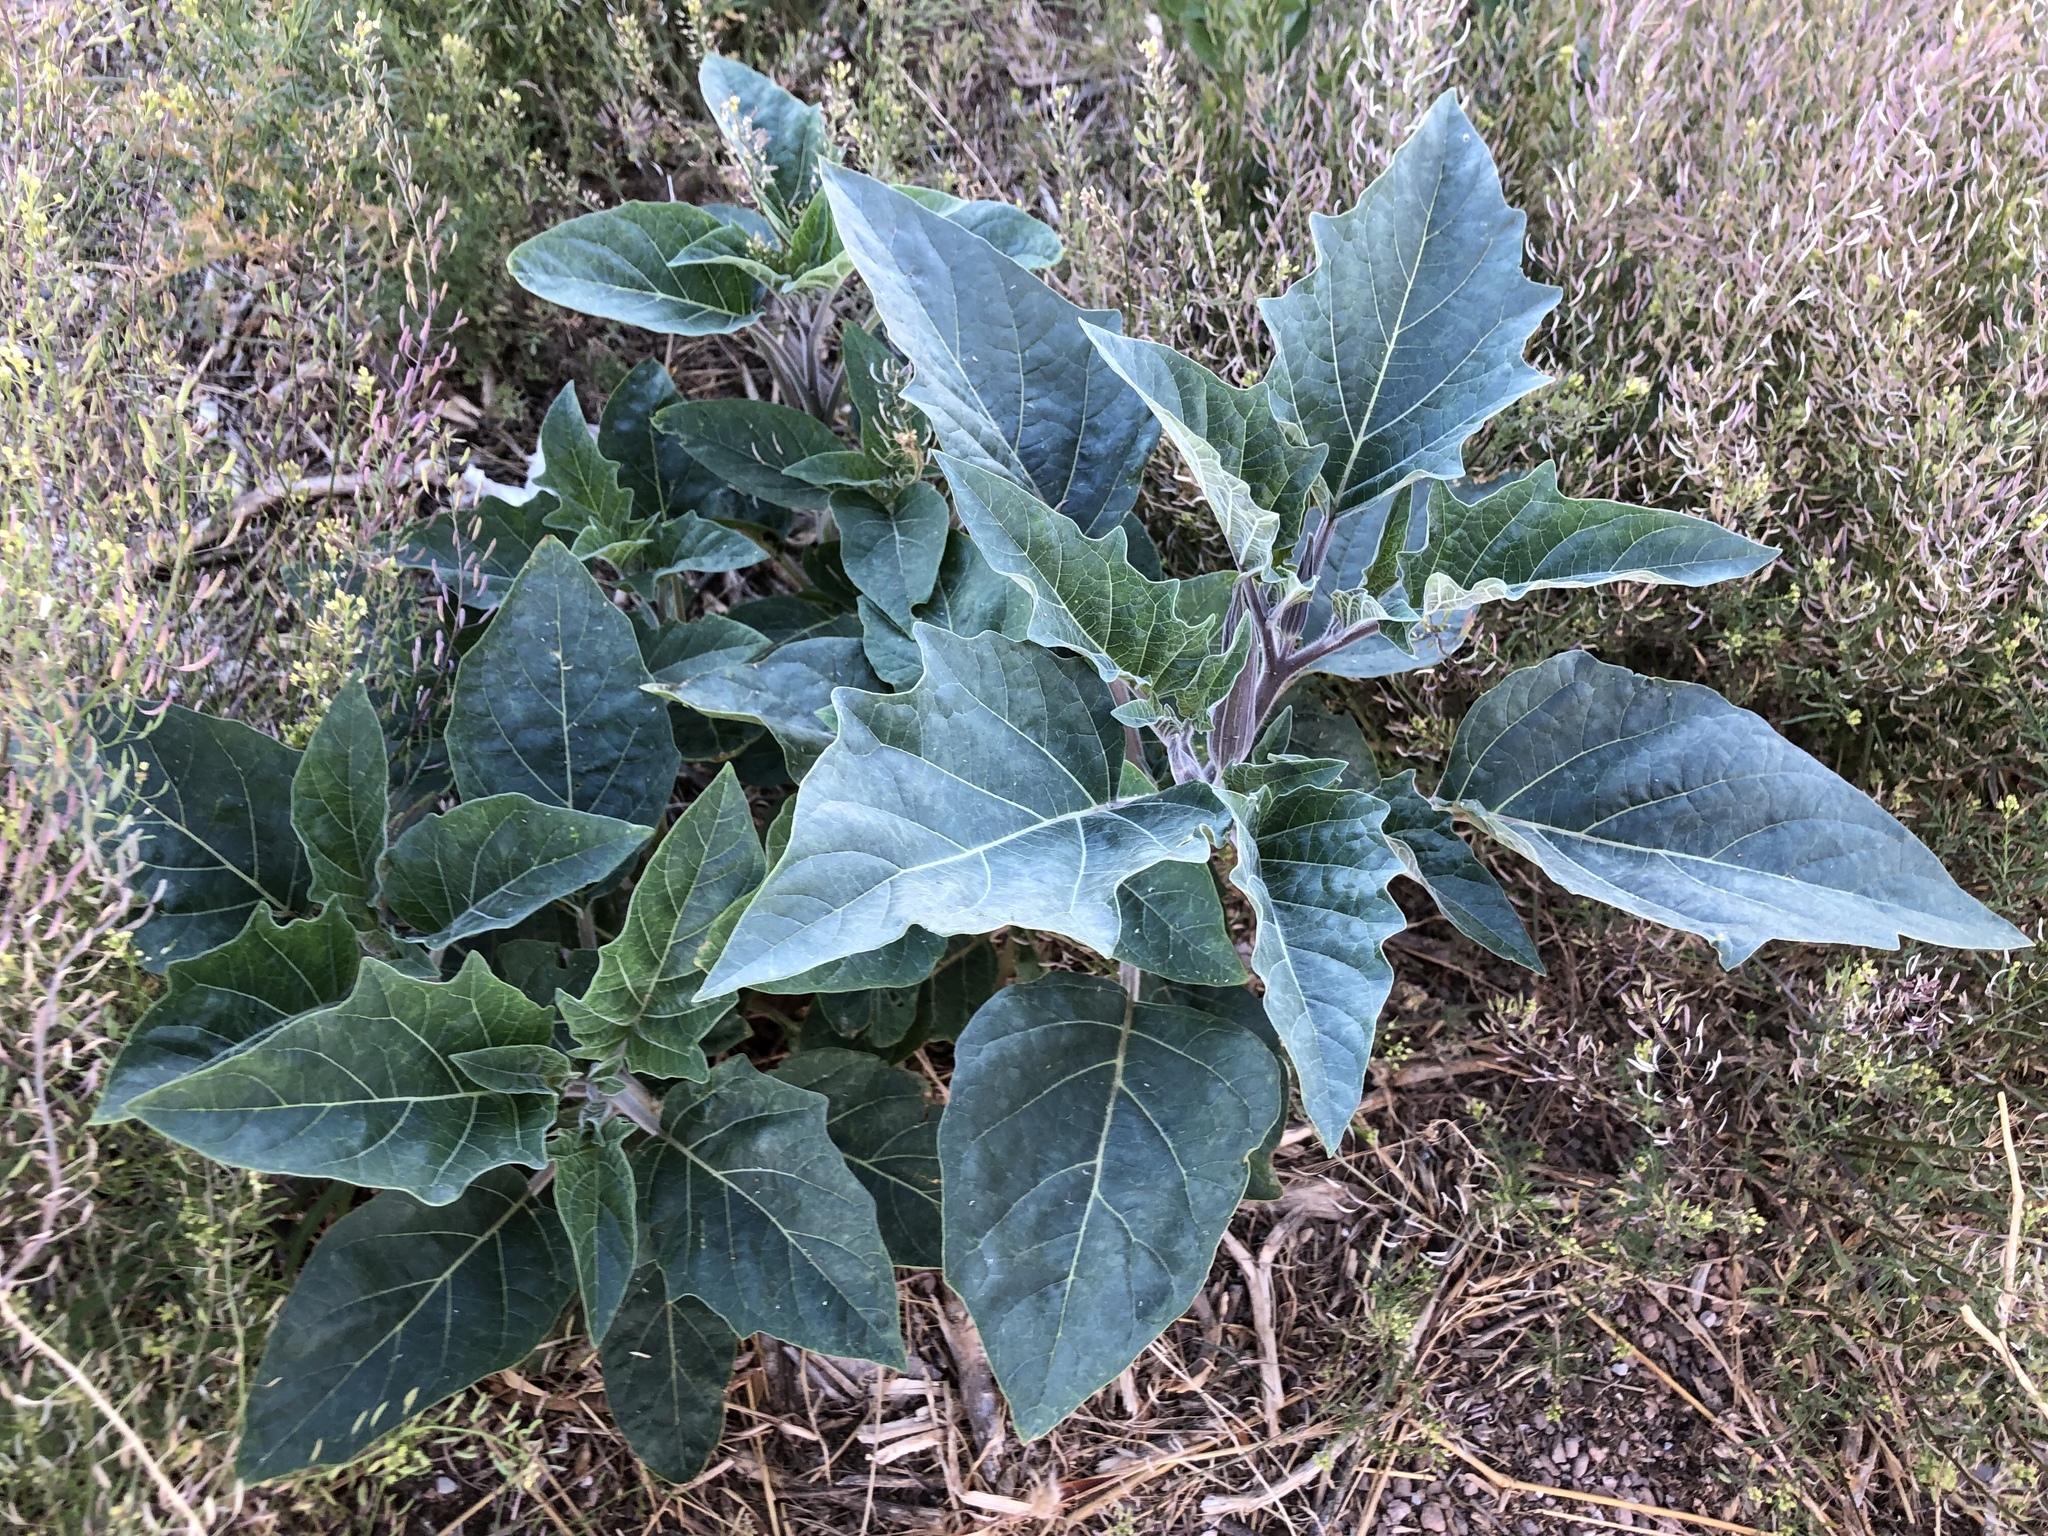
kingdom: Plantae
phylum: Tracheophyta
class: Magnoliopsida
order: Solanales
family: Solanaceae
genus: Datura
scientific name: Datura wrightii
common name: Sacred thorn-apple
